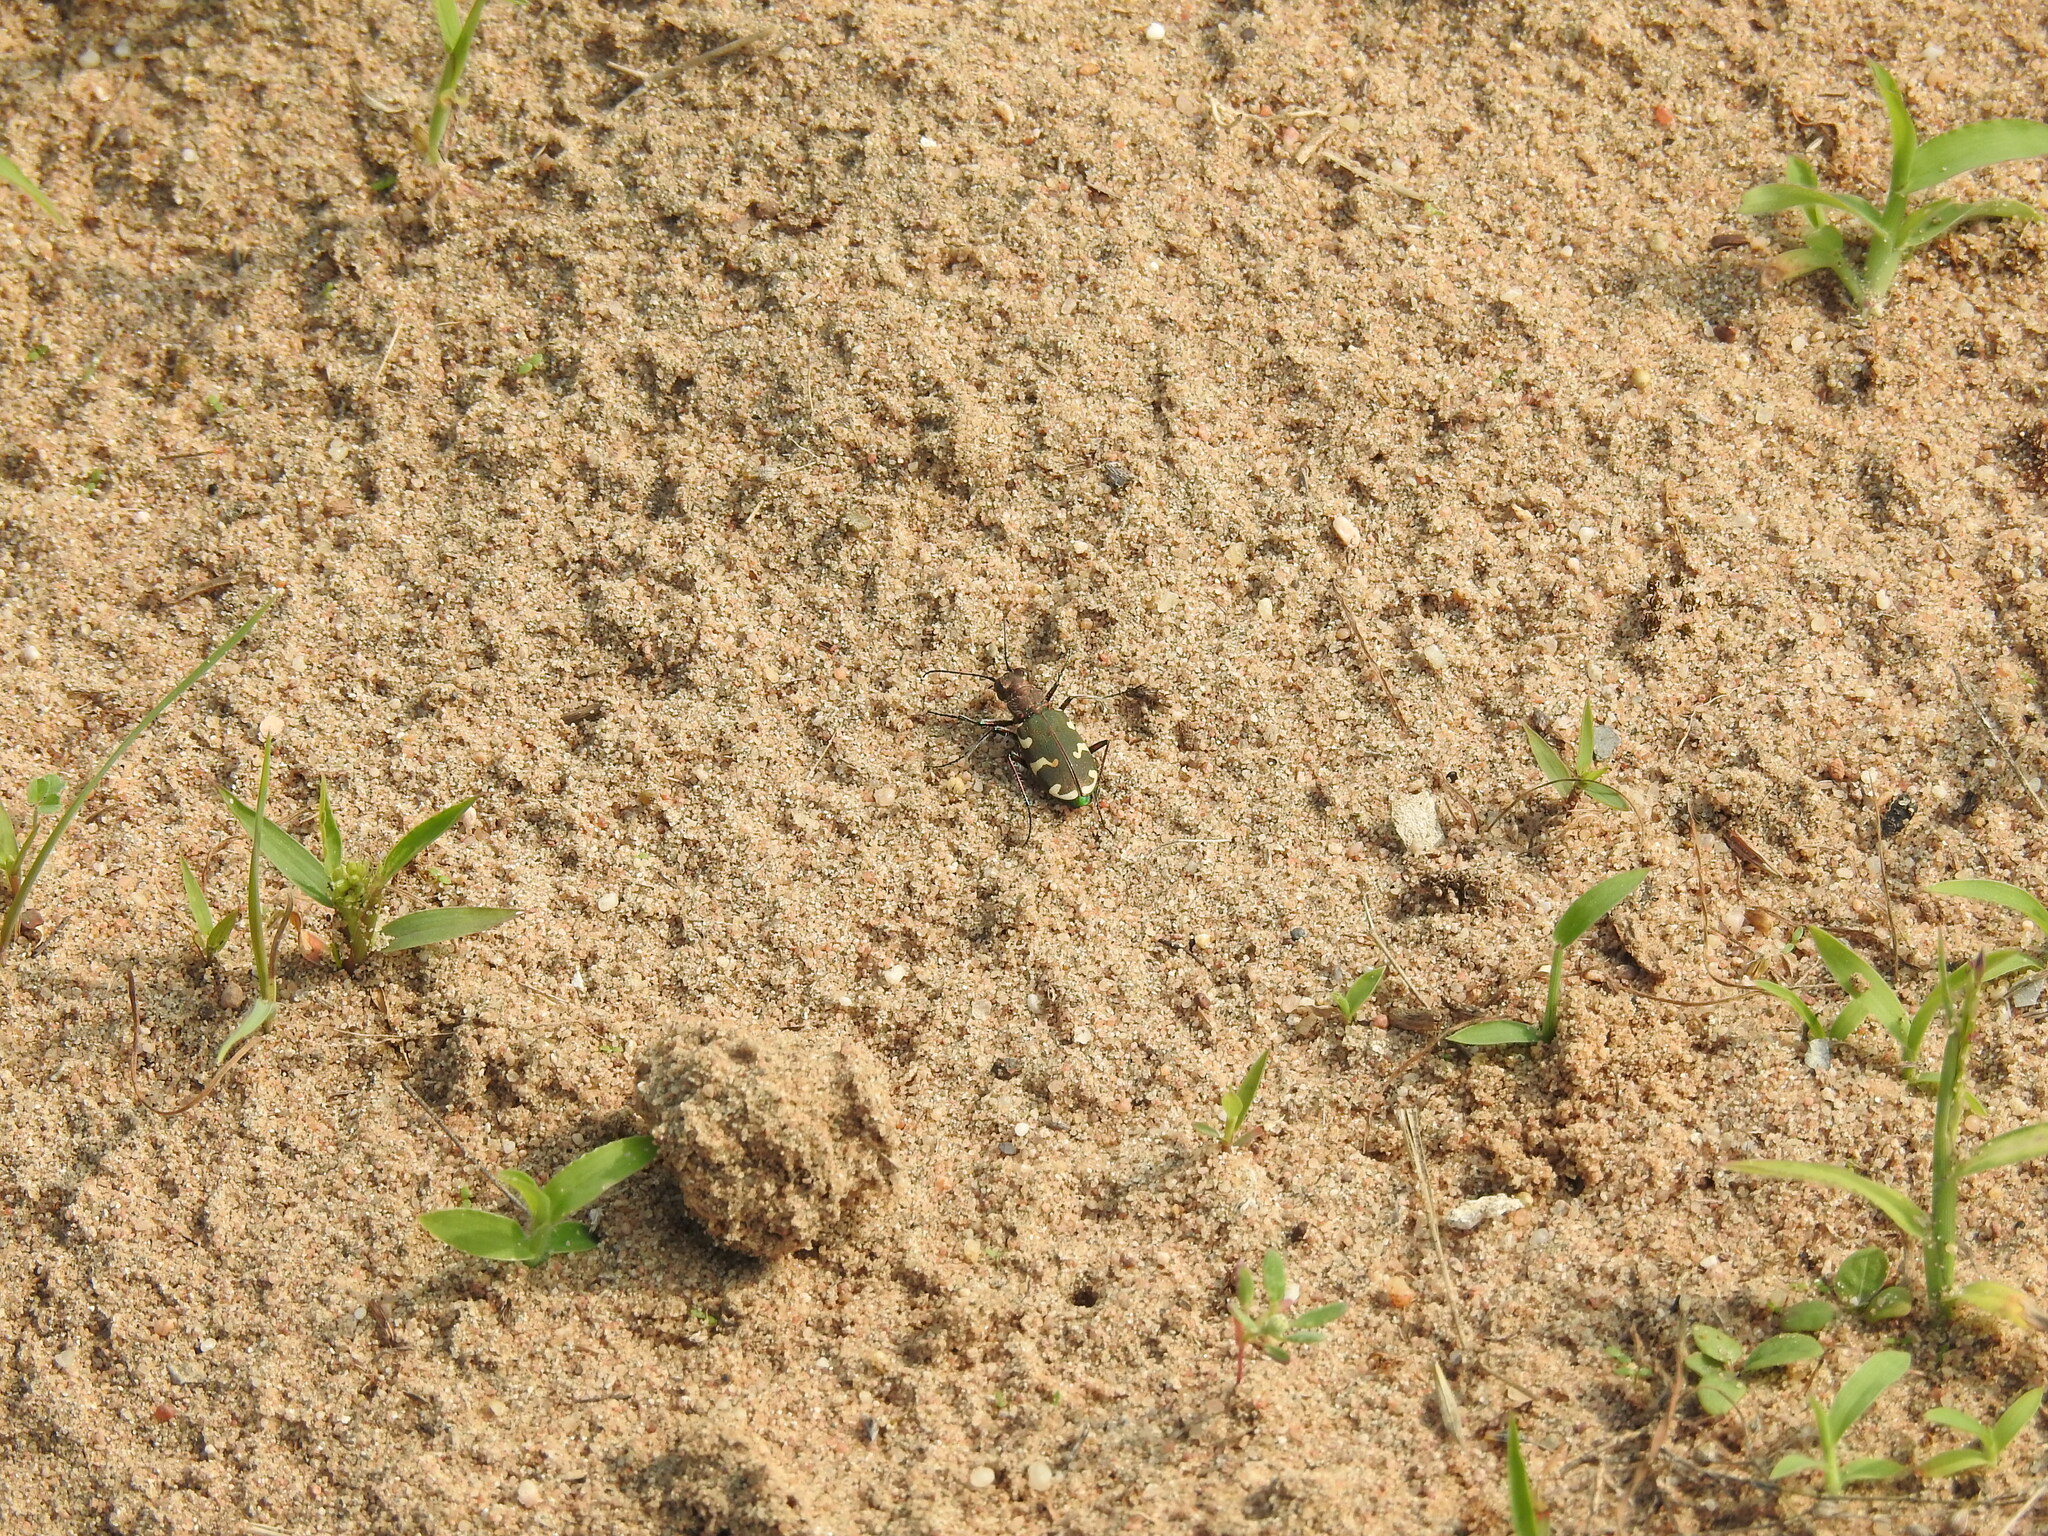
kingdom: Animalia
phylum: Arthropoda
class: Insecta
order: Coleoptera
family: Carabidae
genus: Cicindela
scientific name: Cicindela hybrida
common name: Northern dune tiger beetle
